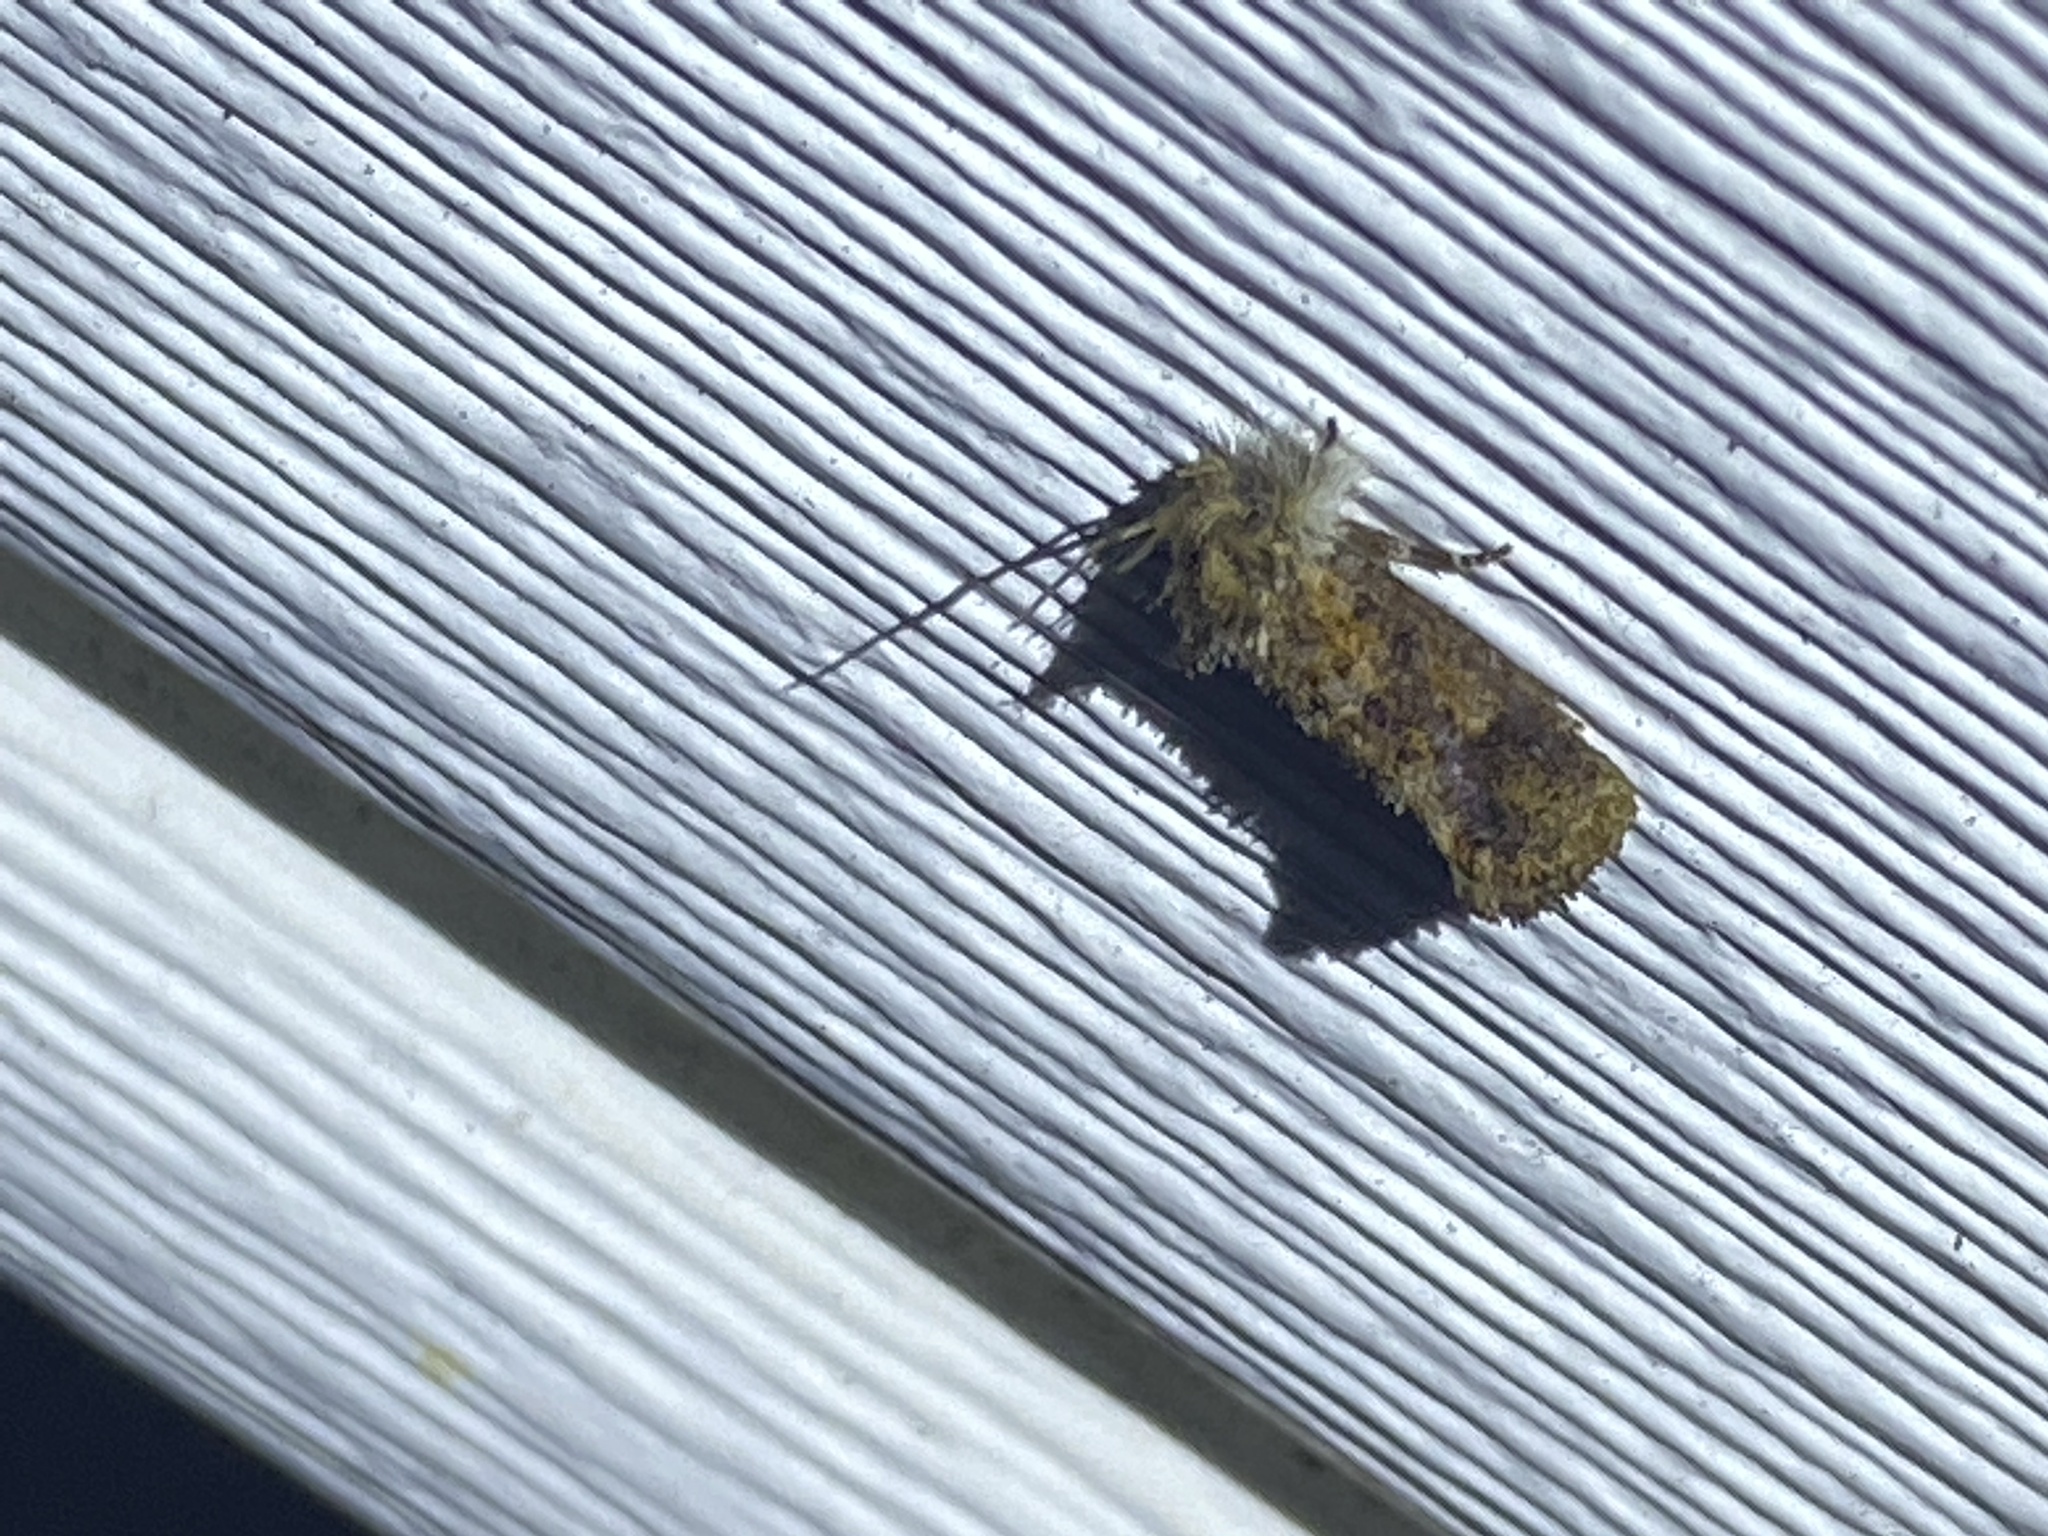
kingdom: Animalia
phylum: Arthropoda
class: Insecta
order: Lepidoptera
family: Tineidae
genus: Acrolophus
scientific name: Acrolophus panamae
